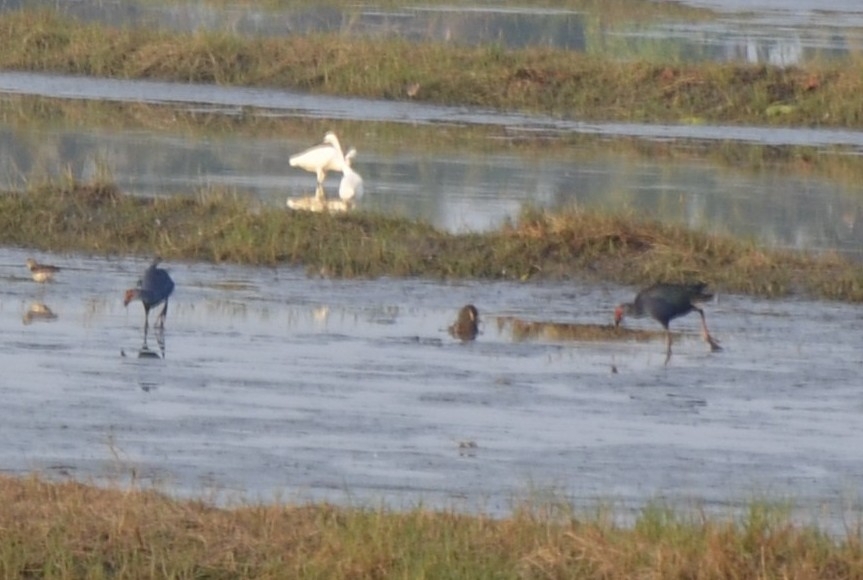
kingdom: Animalia
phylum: Chordata
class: Aves
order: Gruiformes
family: Rallidae
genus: Porphyrio
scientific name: Porphyrio porphyrio
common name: Purple swamphen
